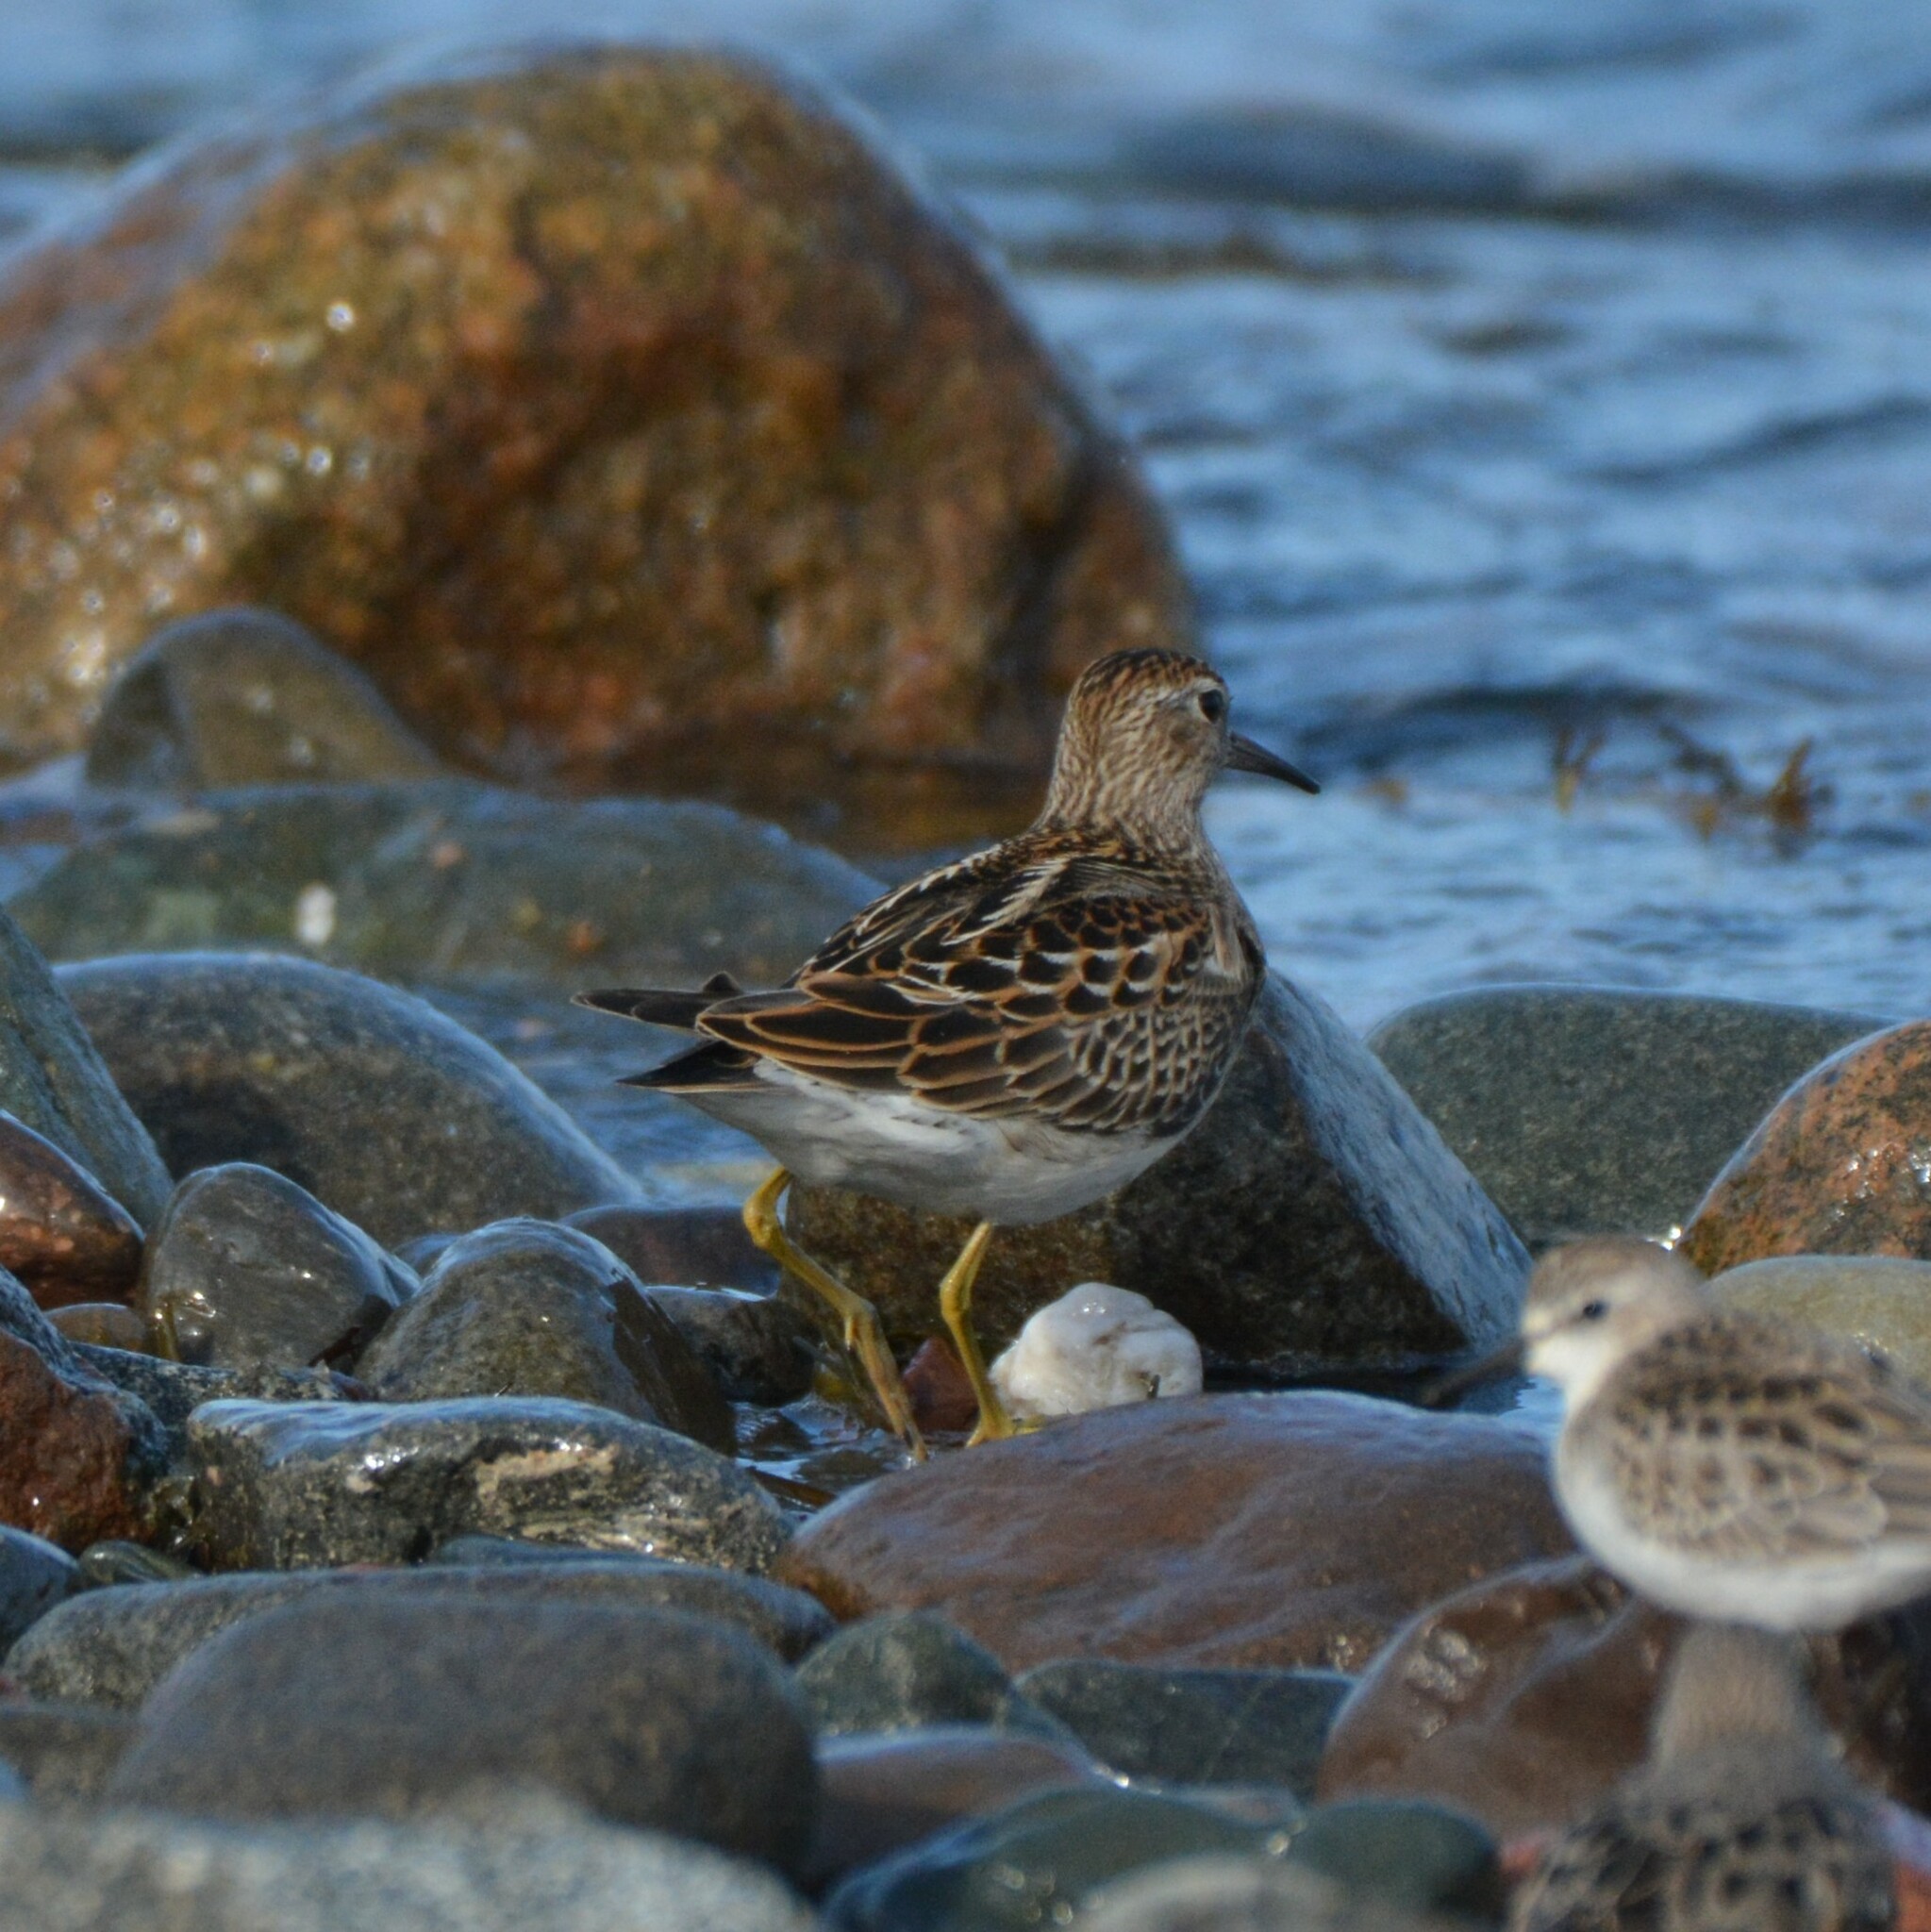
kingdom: Animalia
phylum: Chordata
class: Aves
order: Charadriiformes
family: Scolopacidae
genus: Calidris
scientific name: Calidris melanotos
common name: Pectoral sandpiper
